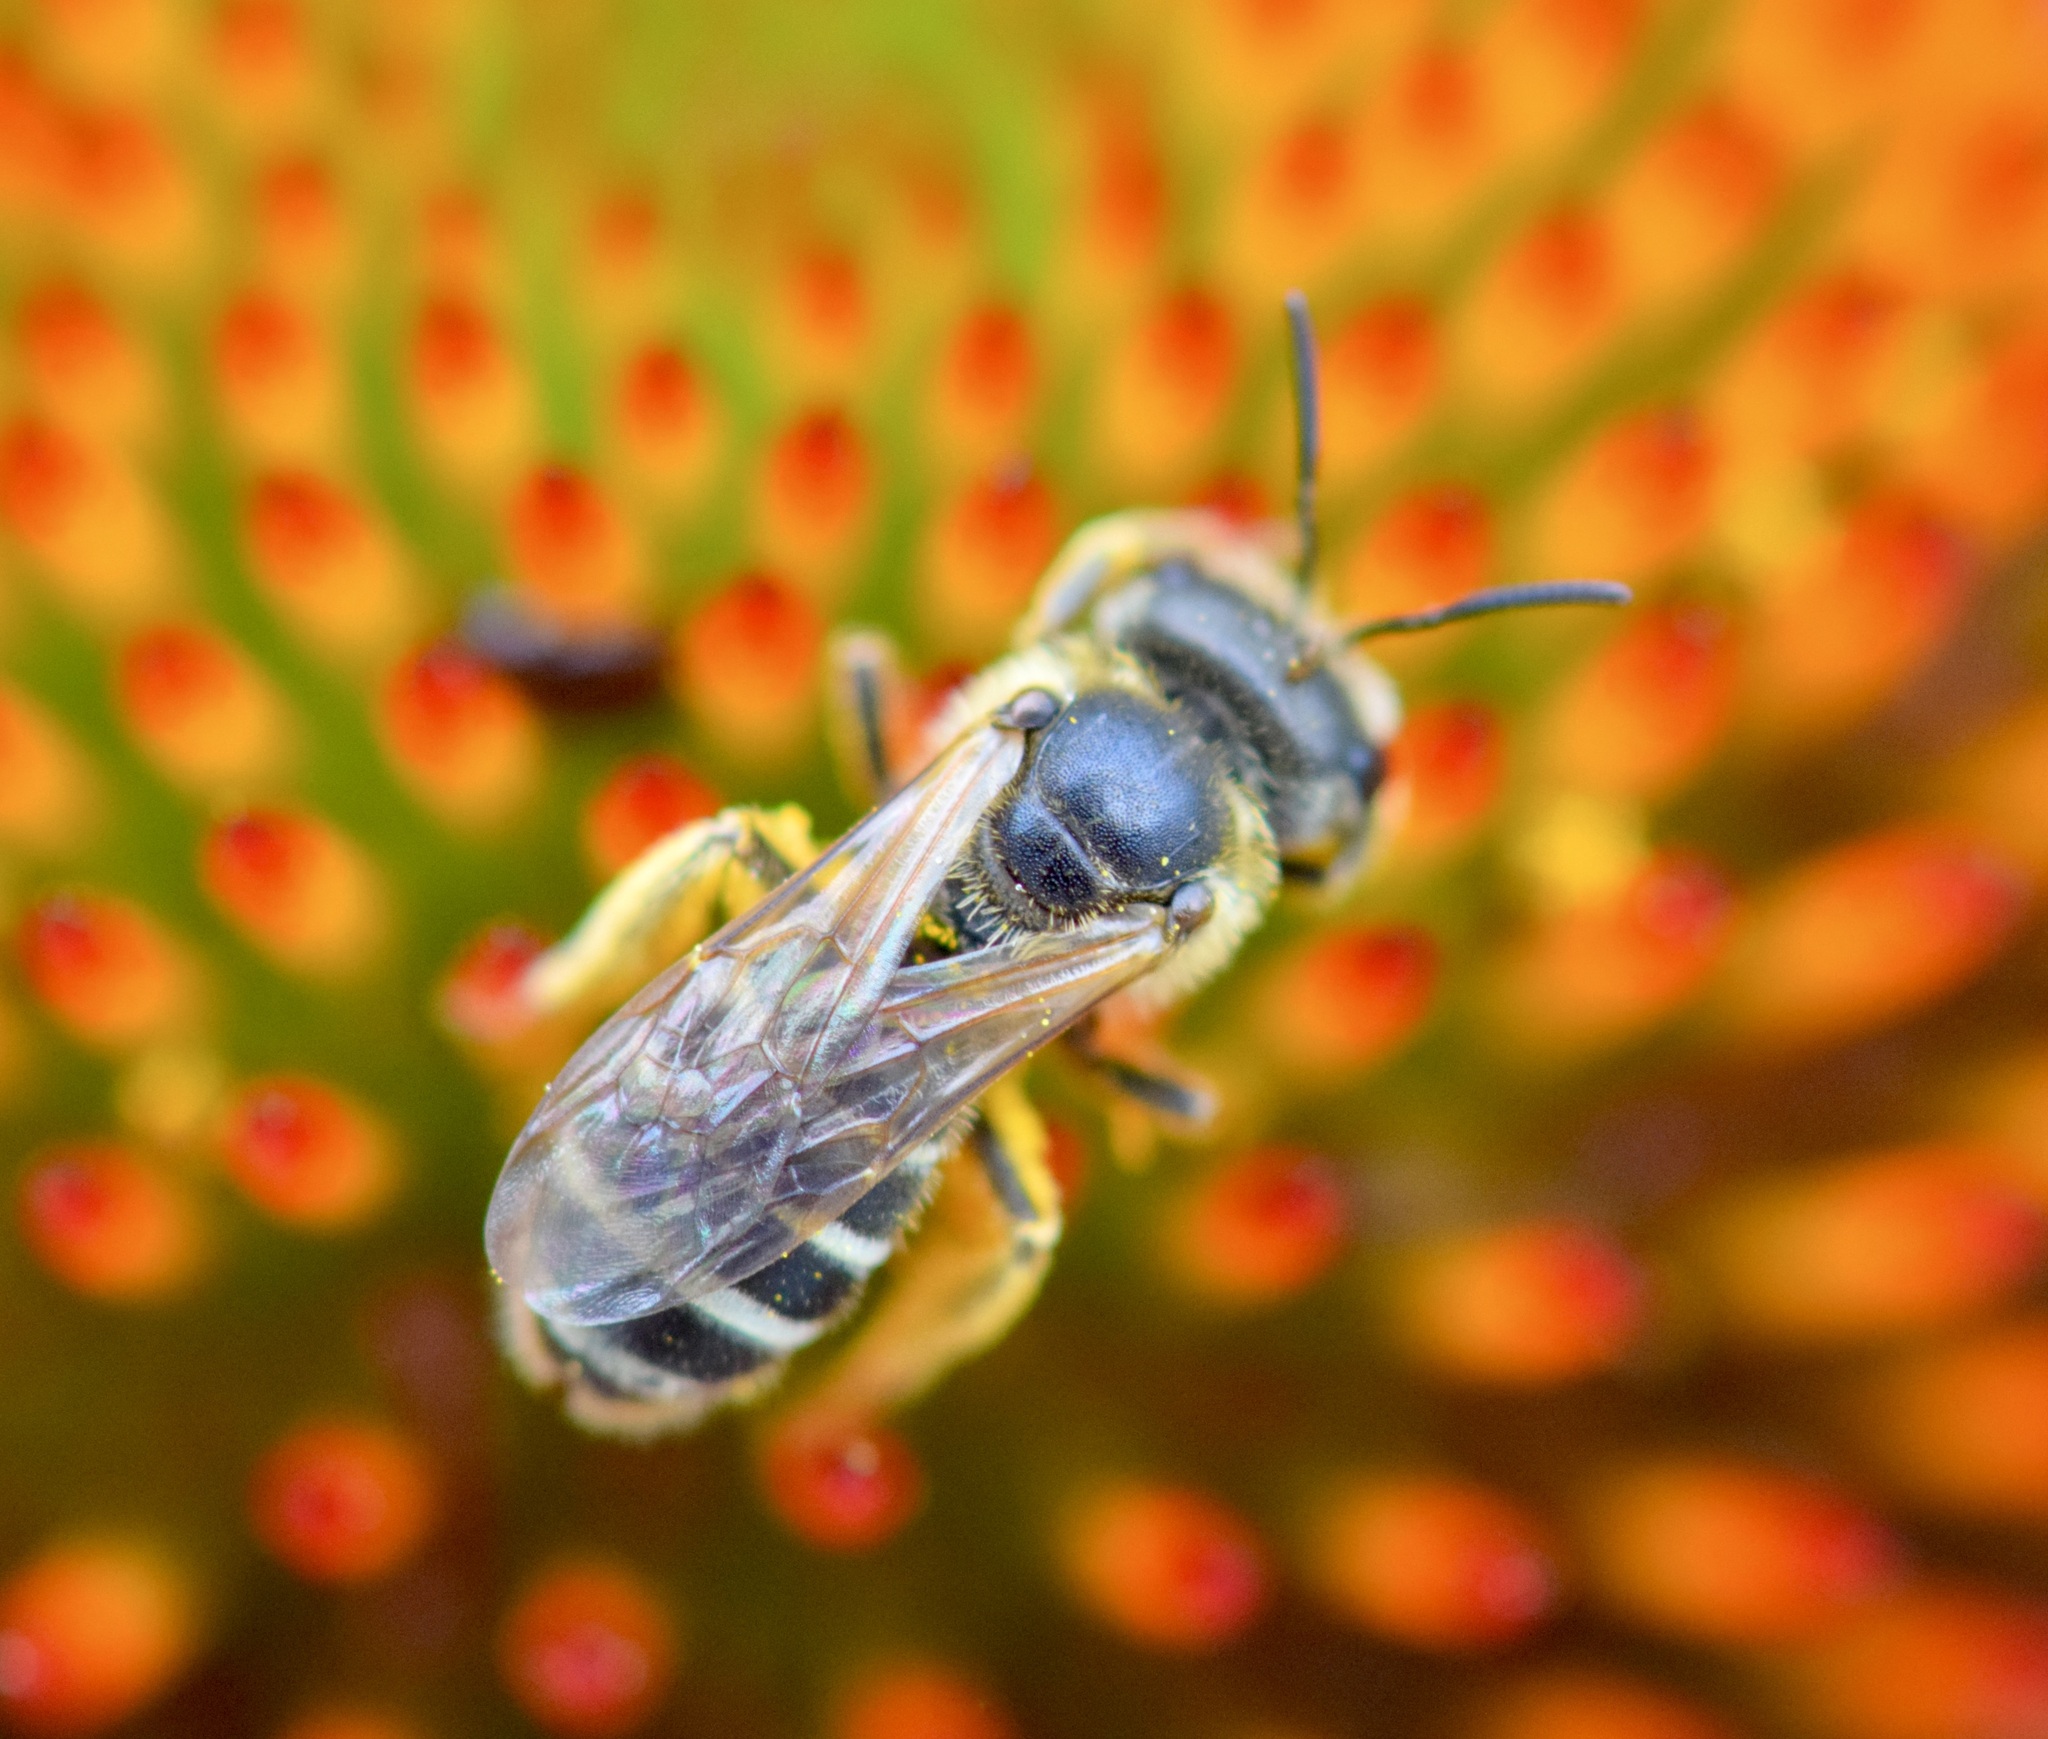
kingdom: Animalia
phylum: Arthropoda
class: Insecta
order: Hymenoptera
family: Halictidae
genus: Halictus
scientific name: Halictus ligatus
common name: Ligated furrow bee
